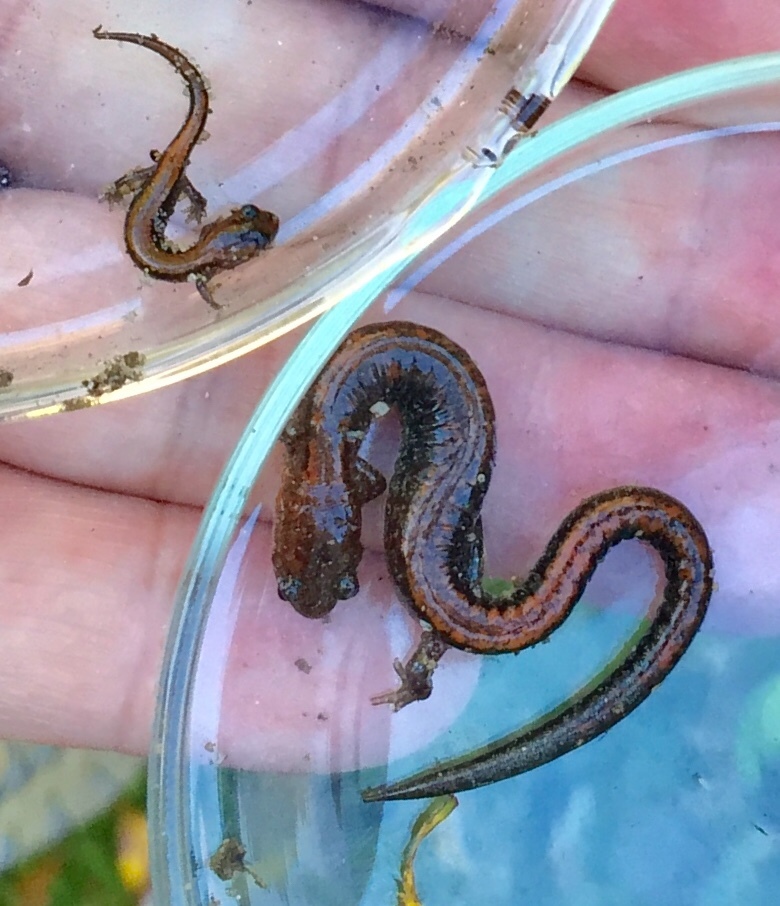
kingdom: Animalia
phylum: Chordata
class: Amphibia
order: Caudata
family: Plethodontidae
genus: Plethodon
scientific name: Plethodon cinereus
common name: Redback salamander
